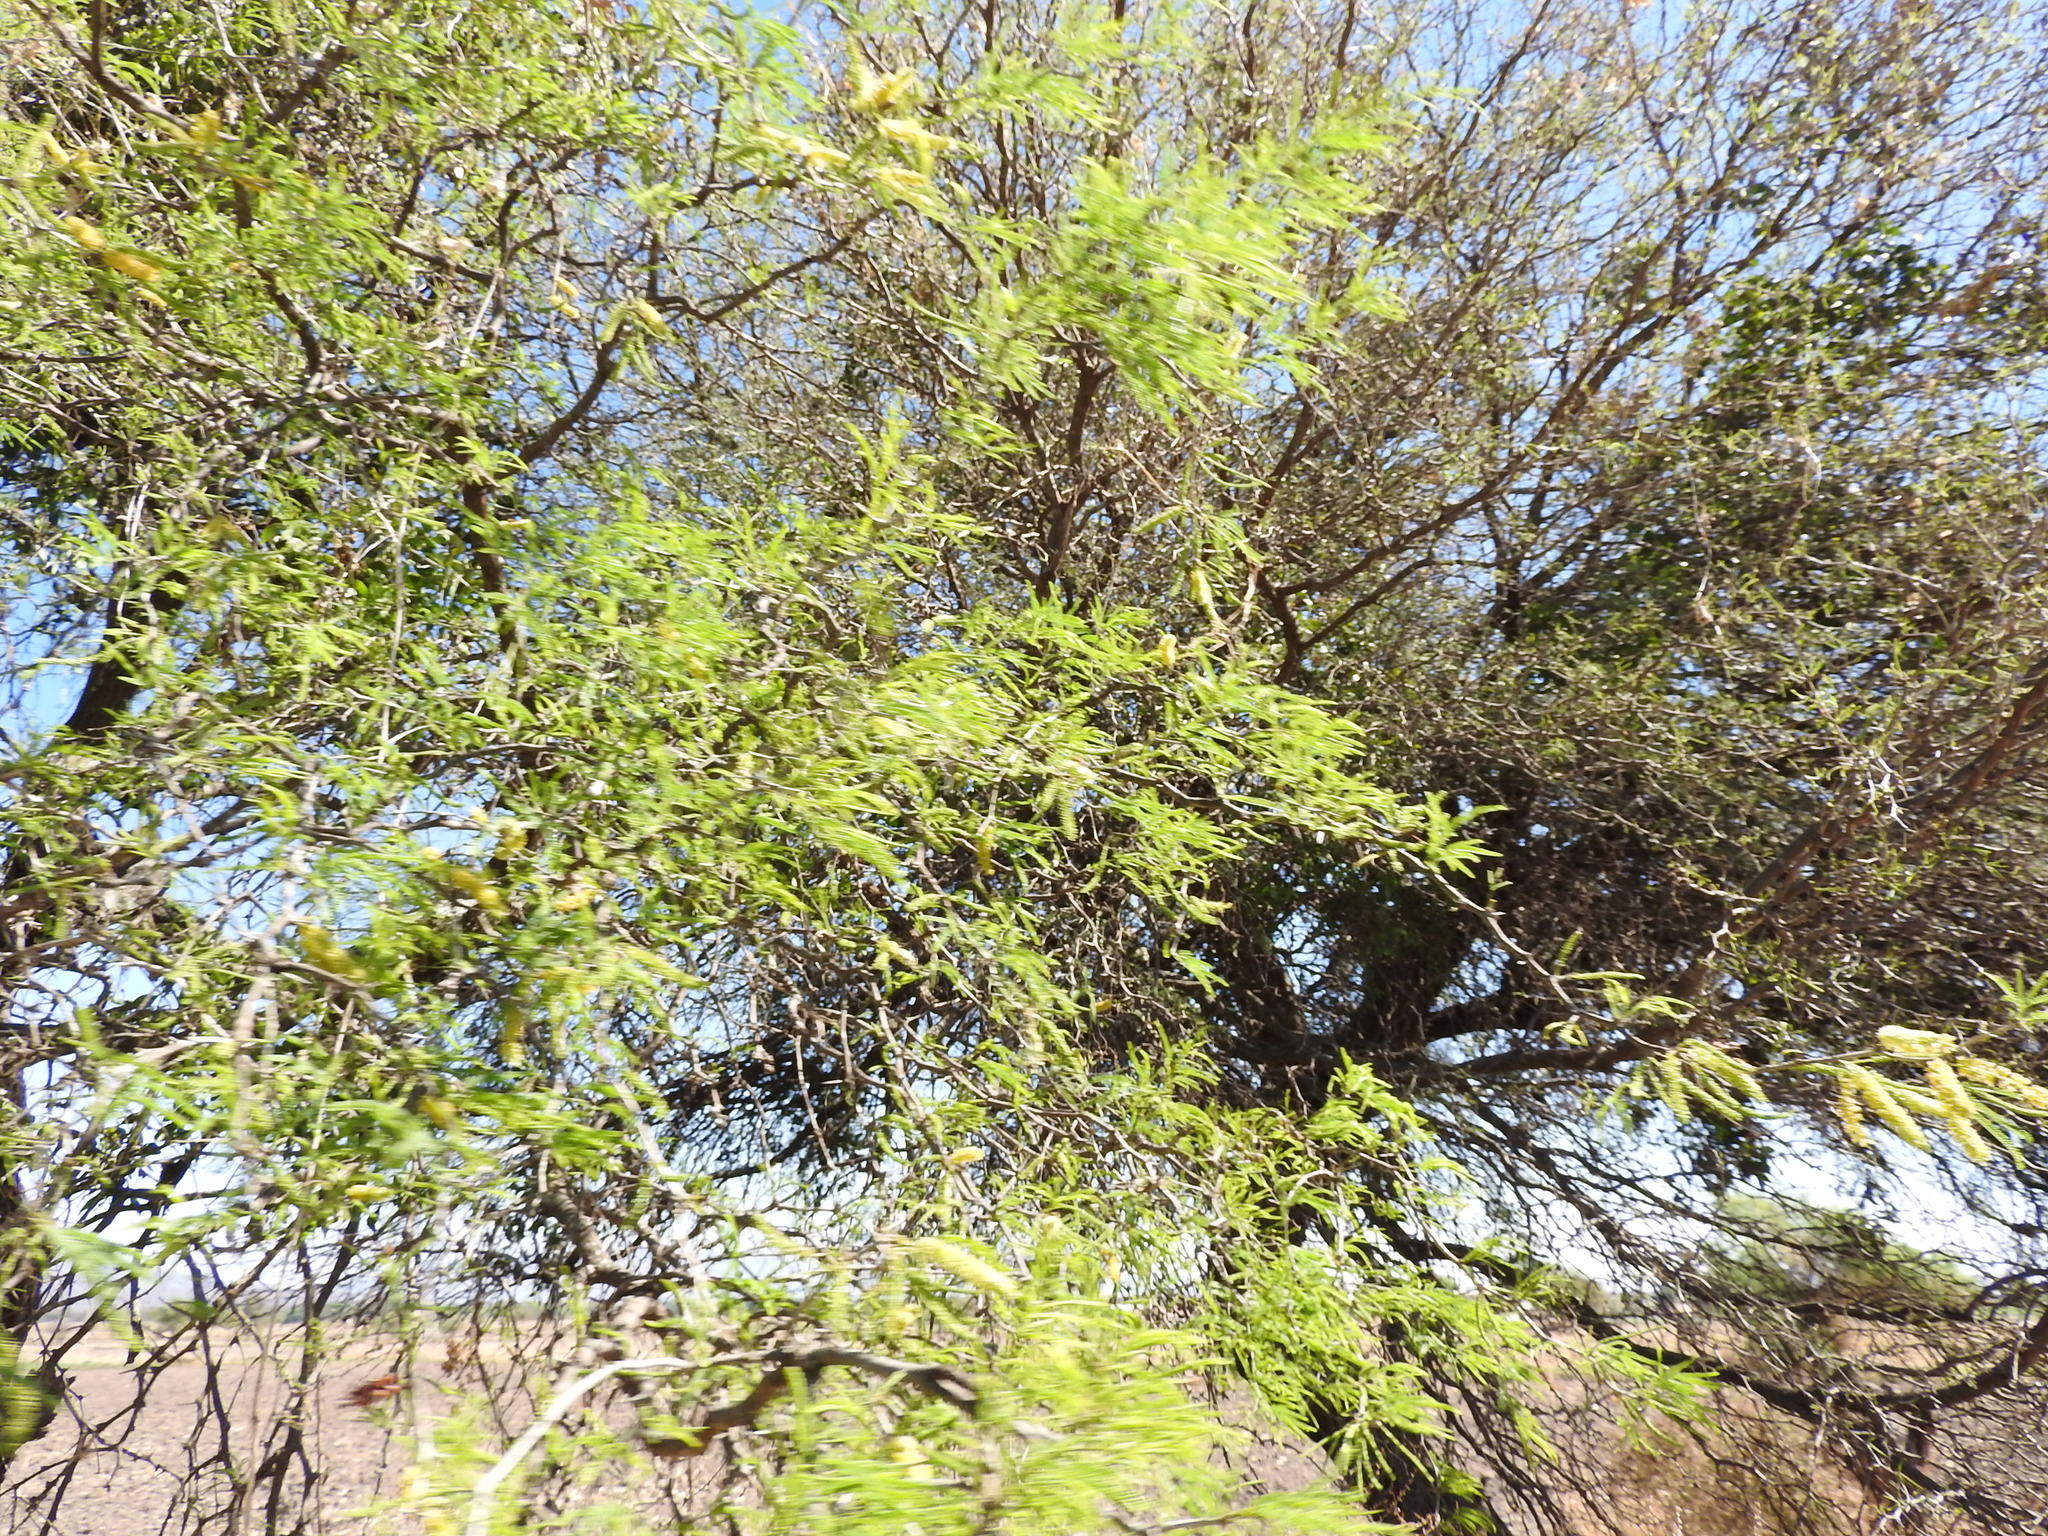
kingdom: Plantae
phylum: Tracheophyta
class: Magnoliopsida
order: Fabales
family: Fabaceae
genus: Prosopis
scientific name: Prosopis laevigata
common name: Smooth mesquite
